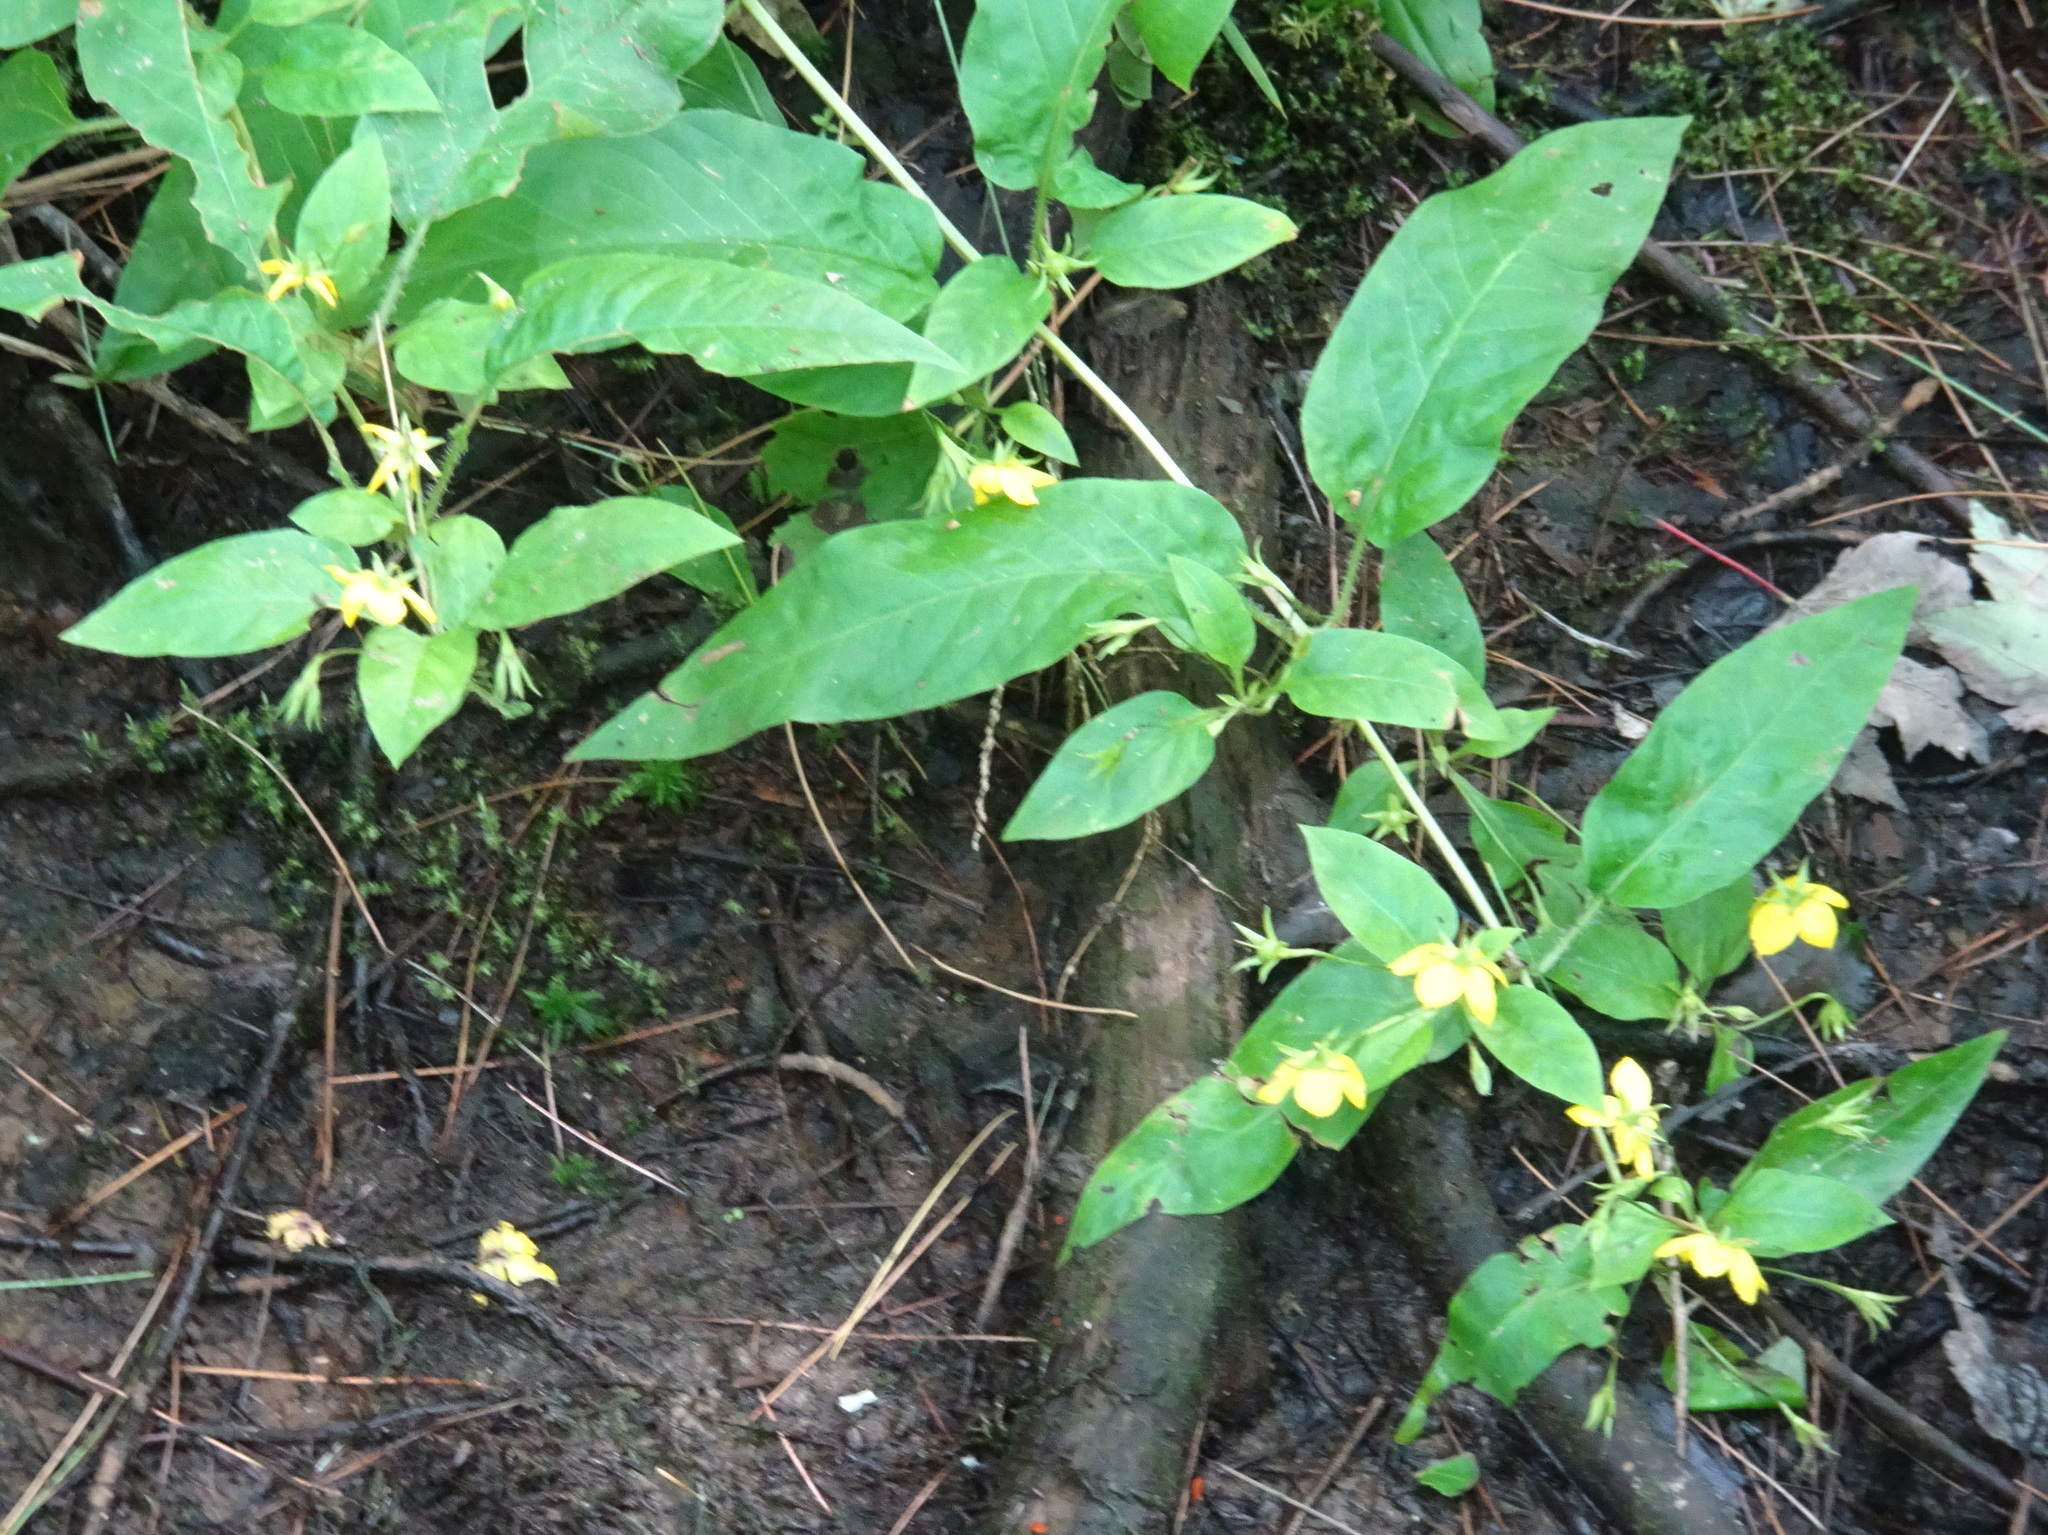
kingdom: Plantae
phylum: Tracheophyta
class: Magnoliopsida
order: Ericales
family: Primulaceae
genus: Lysimachia
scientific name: Lysimachia ciliata
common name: Fringed loosestrife
